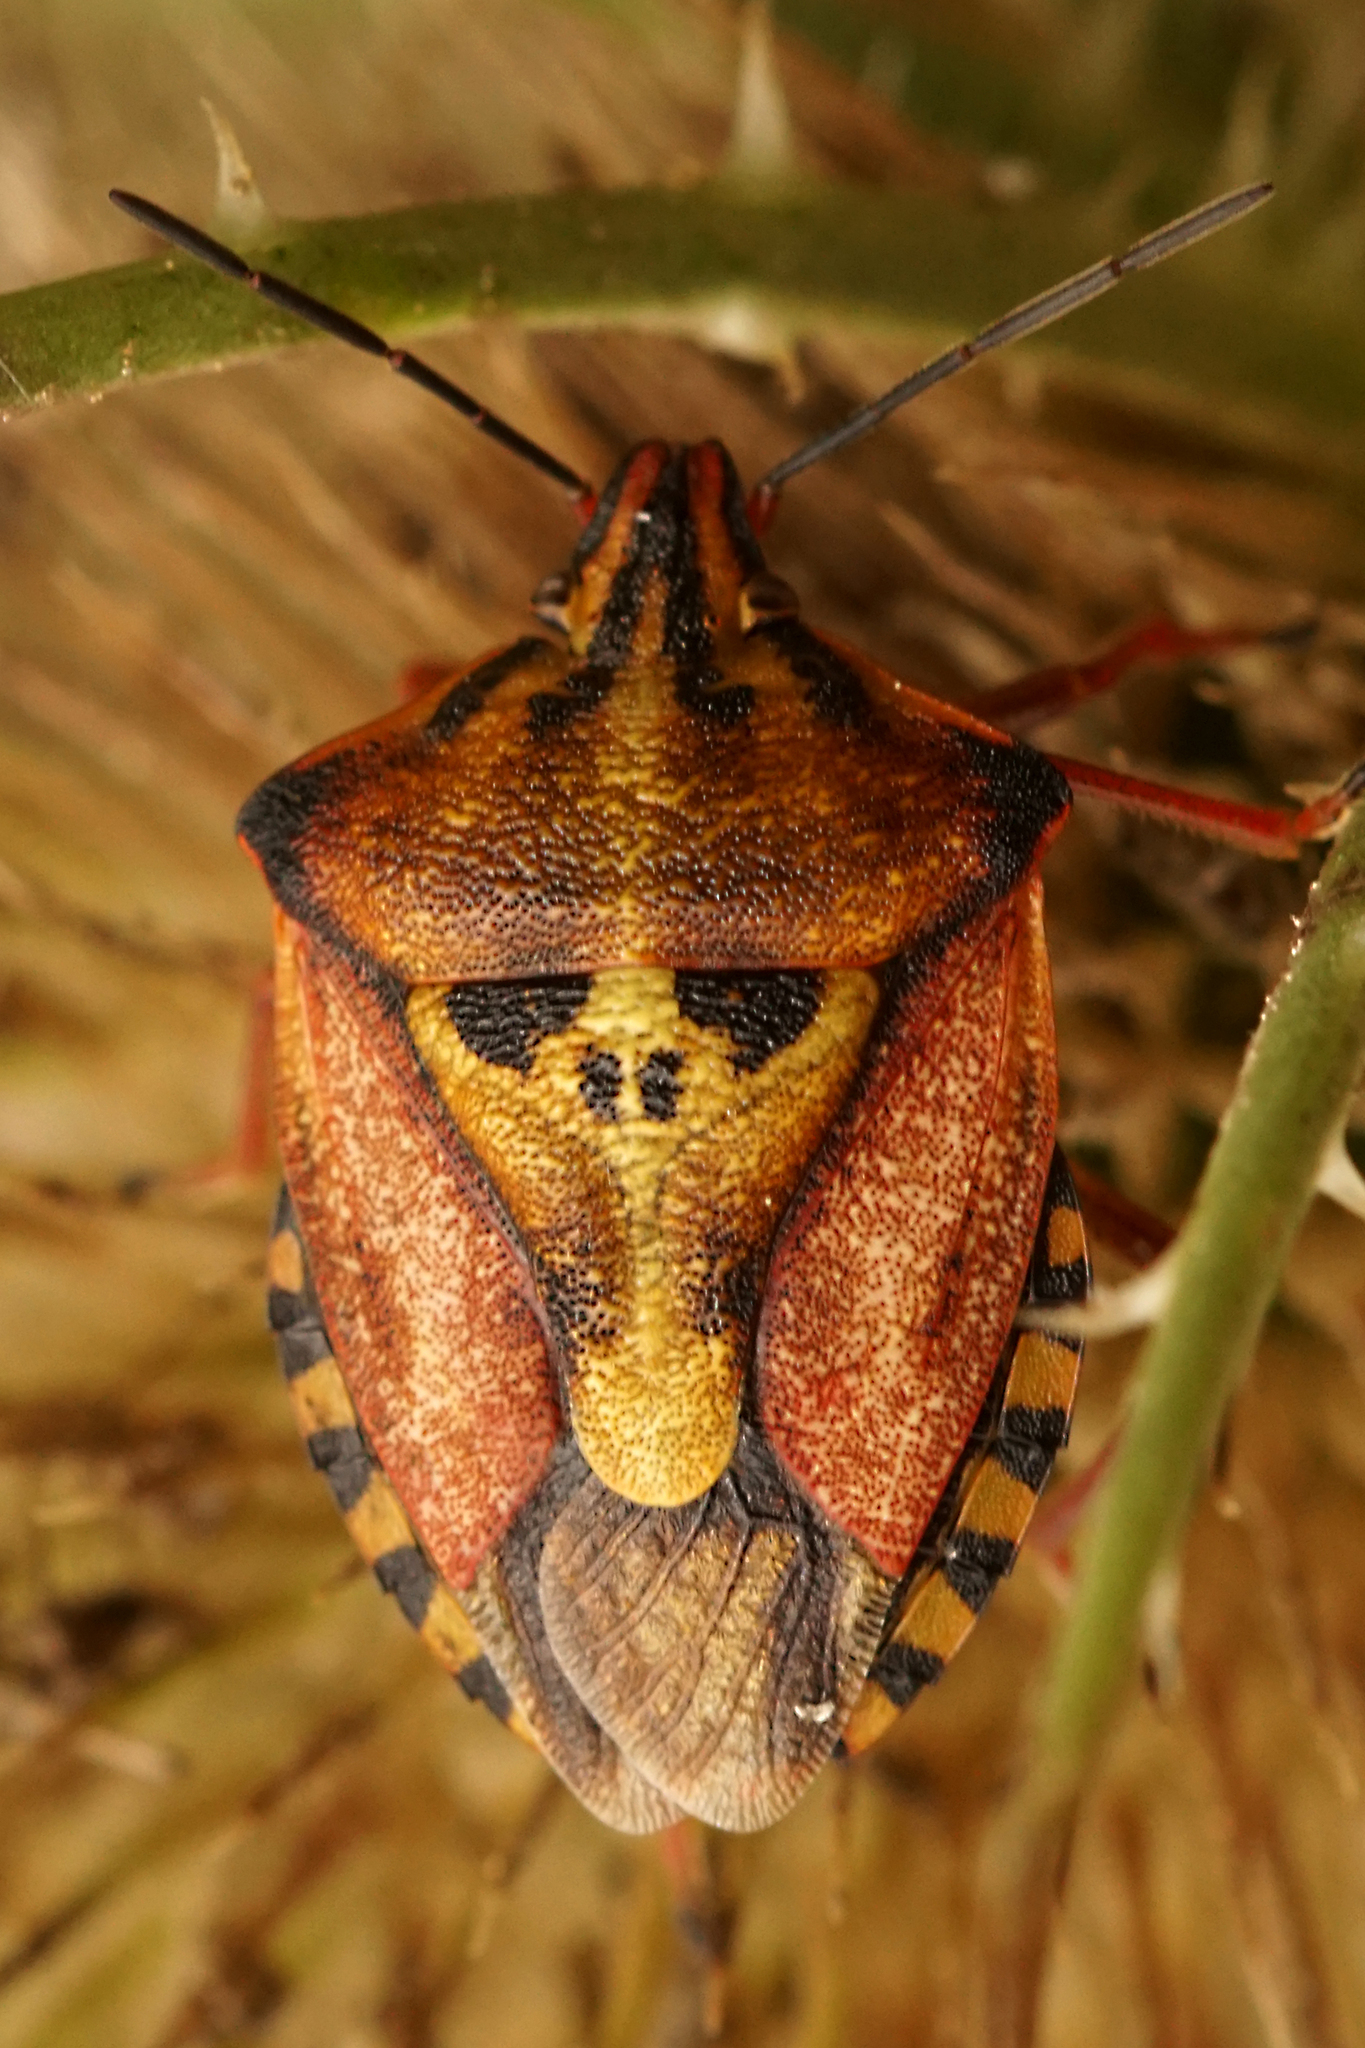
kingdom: Animalia
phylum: Arthropoda
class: Insecta
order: Hemiptera
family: Pentatomidae
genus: Carpocoris
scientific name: Carpocoris mediterraneus
